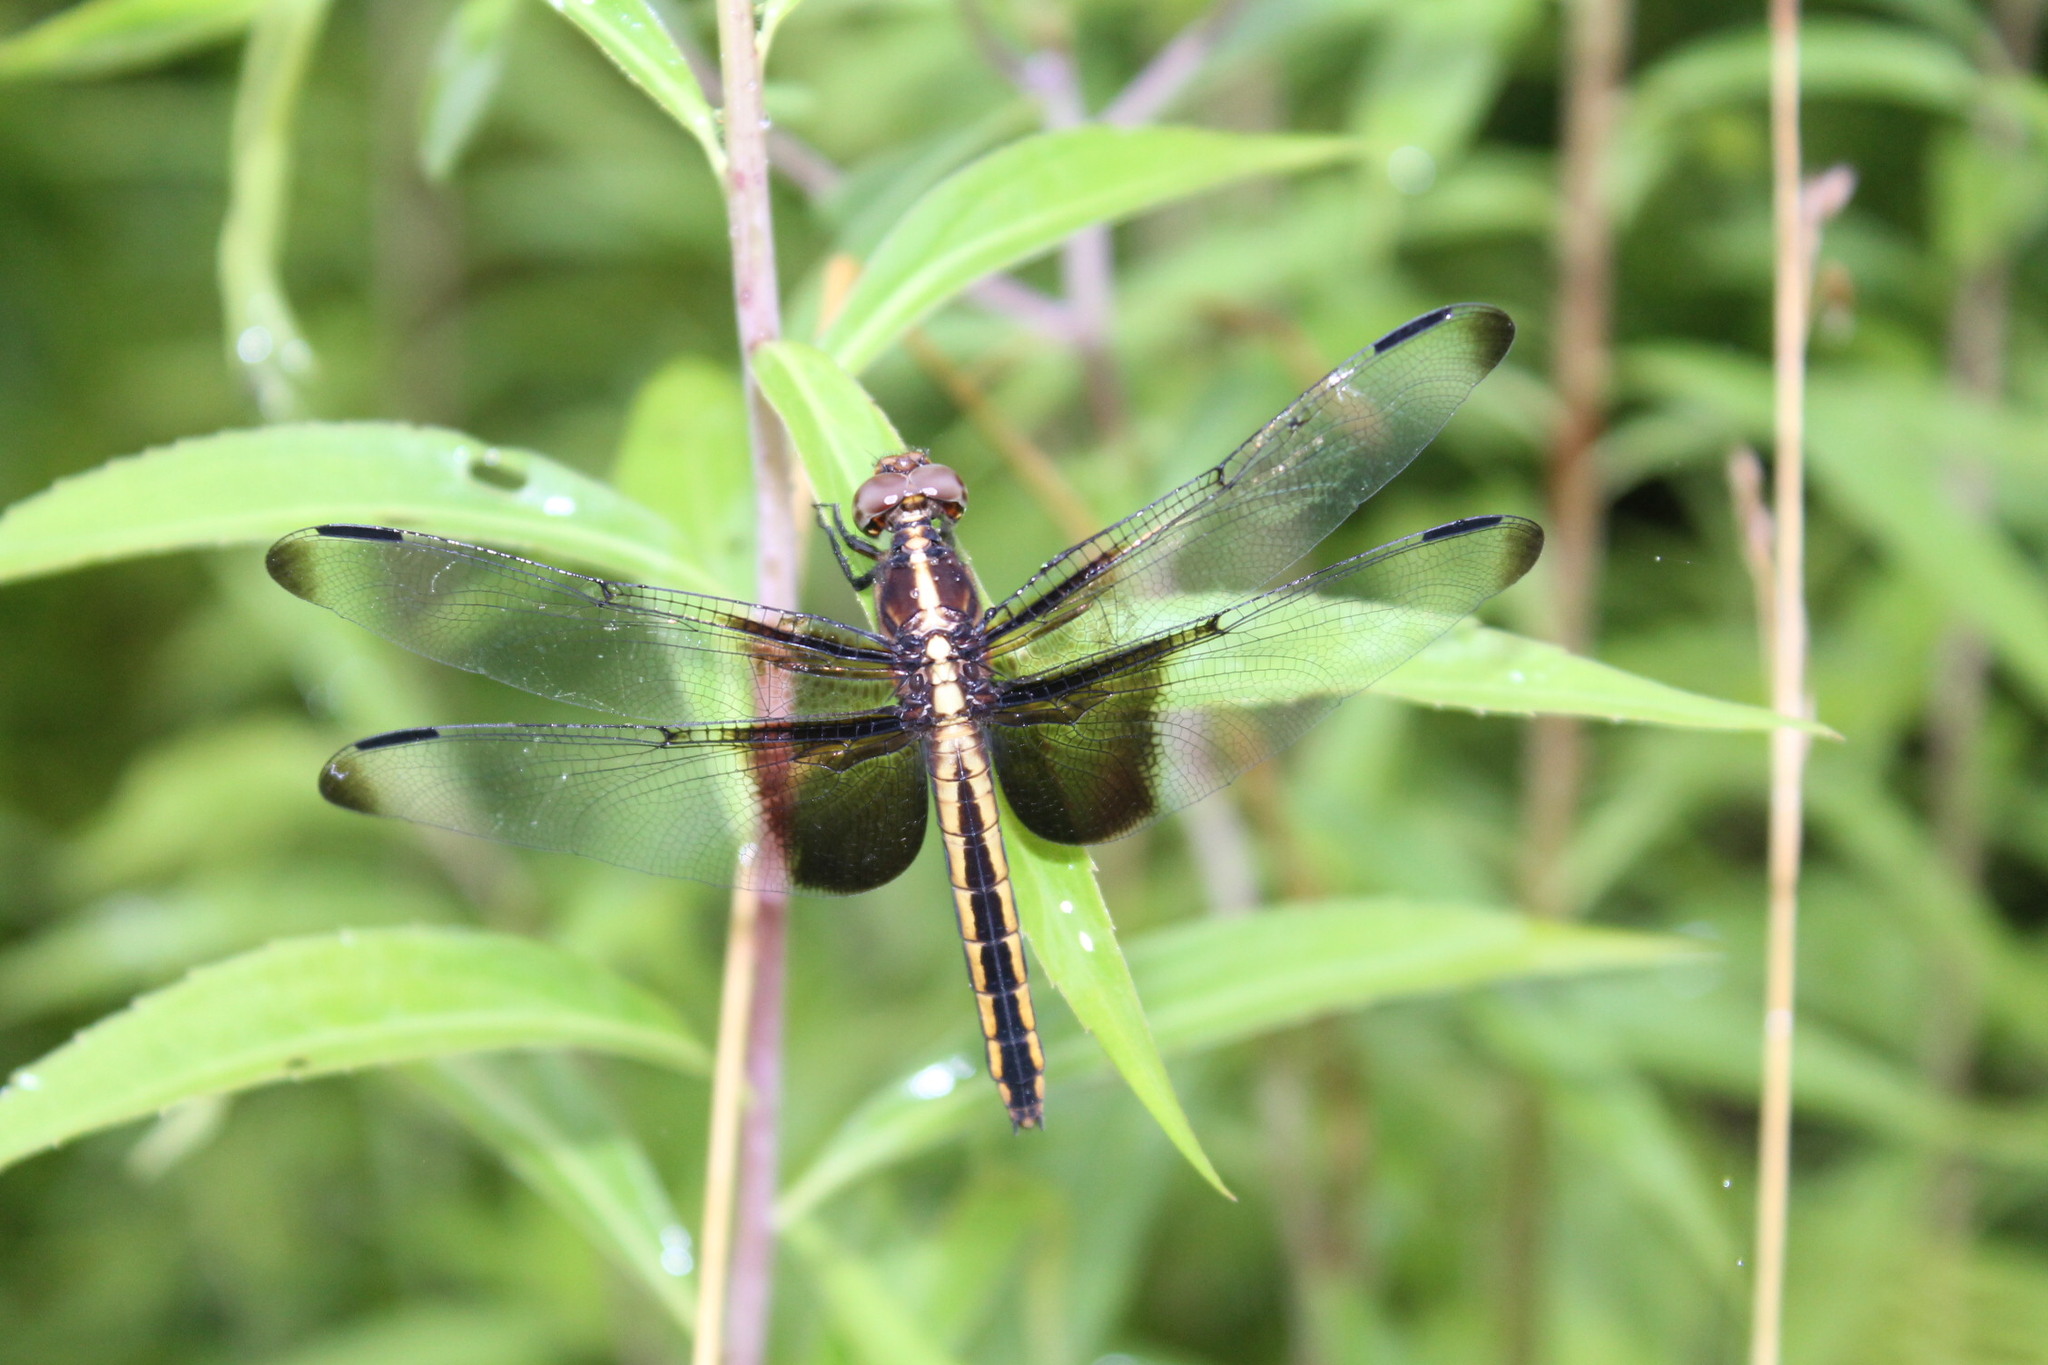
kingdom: Animalia
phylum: Arthropoda
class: Insecta
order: Odonata
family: Libellulidae
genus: Libellula
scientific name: Libellula luctuosa
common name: Widow skimmer
